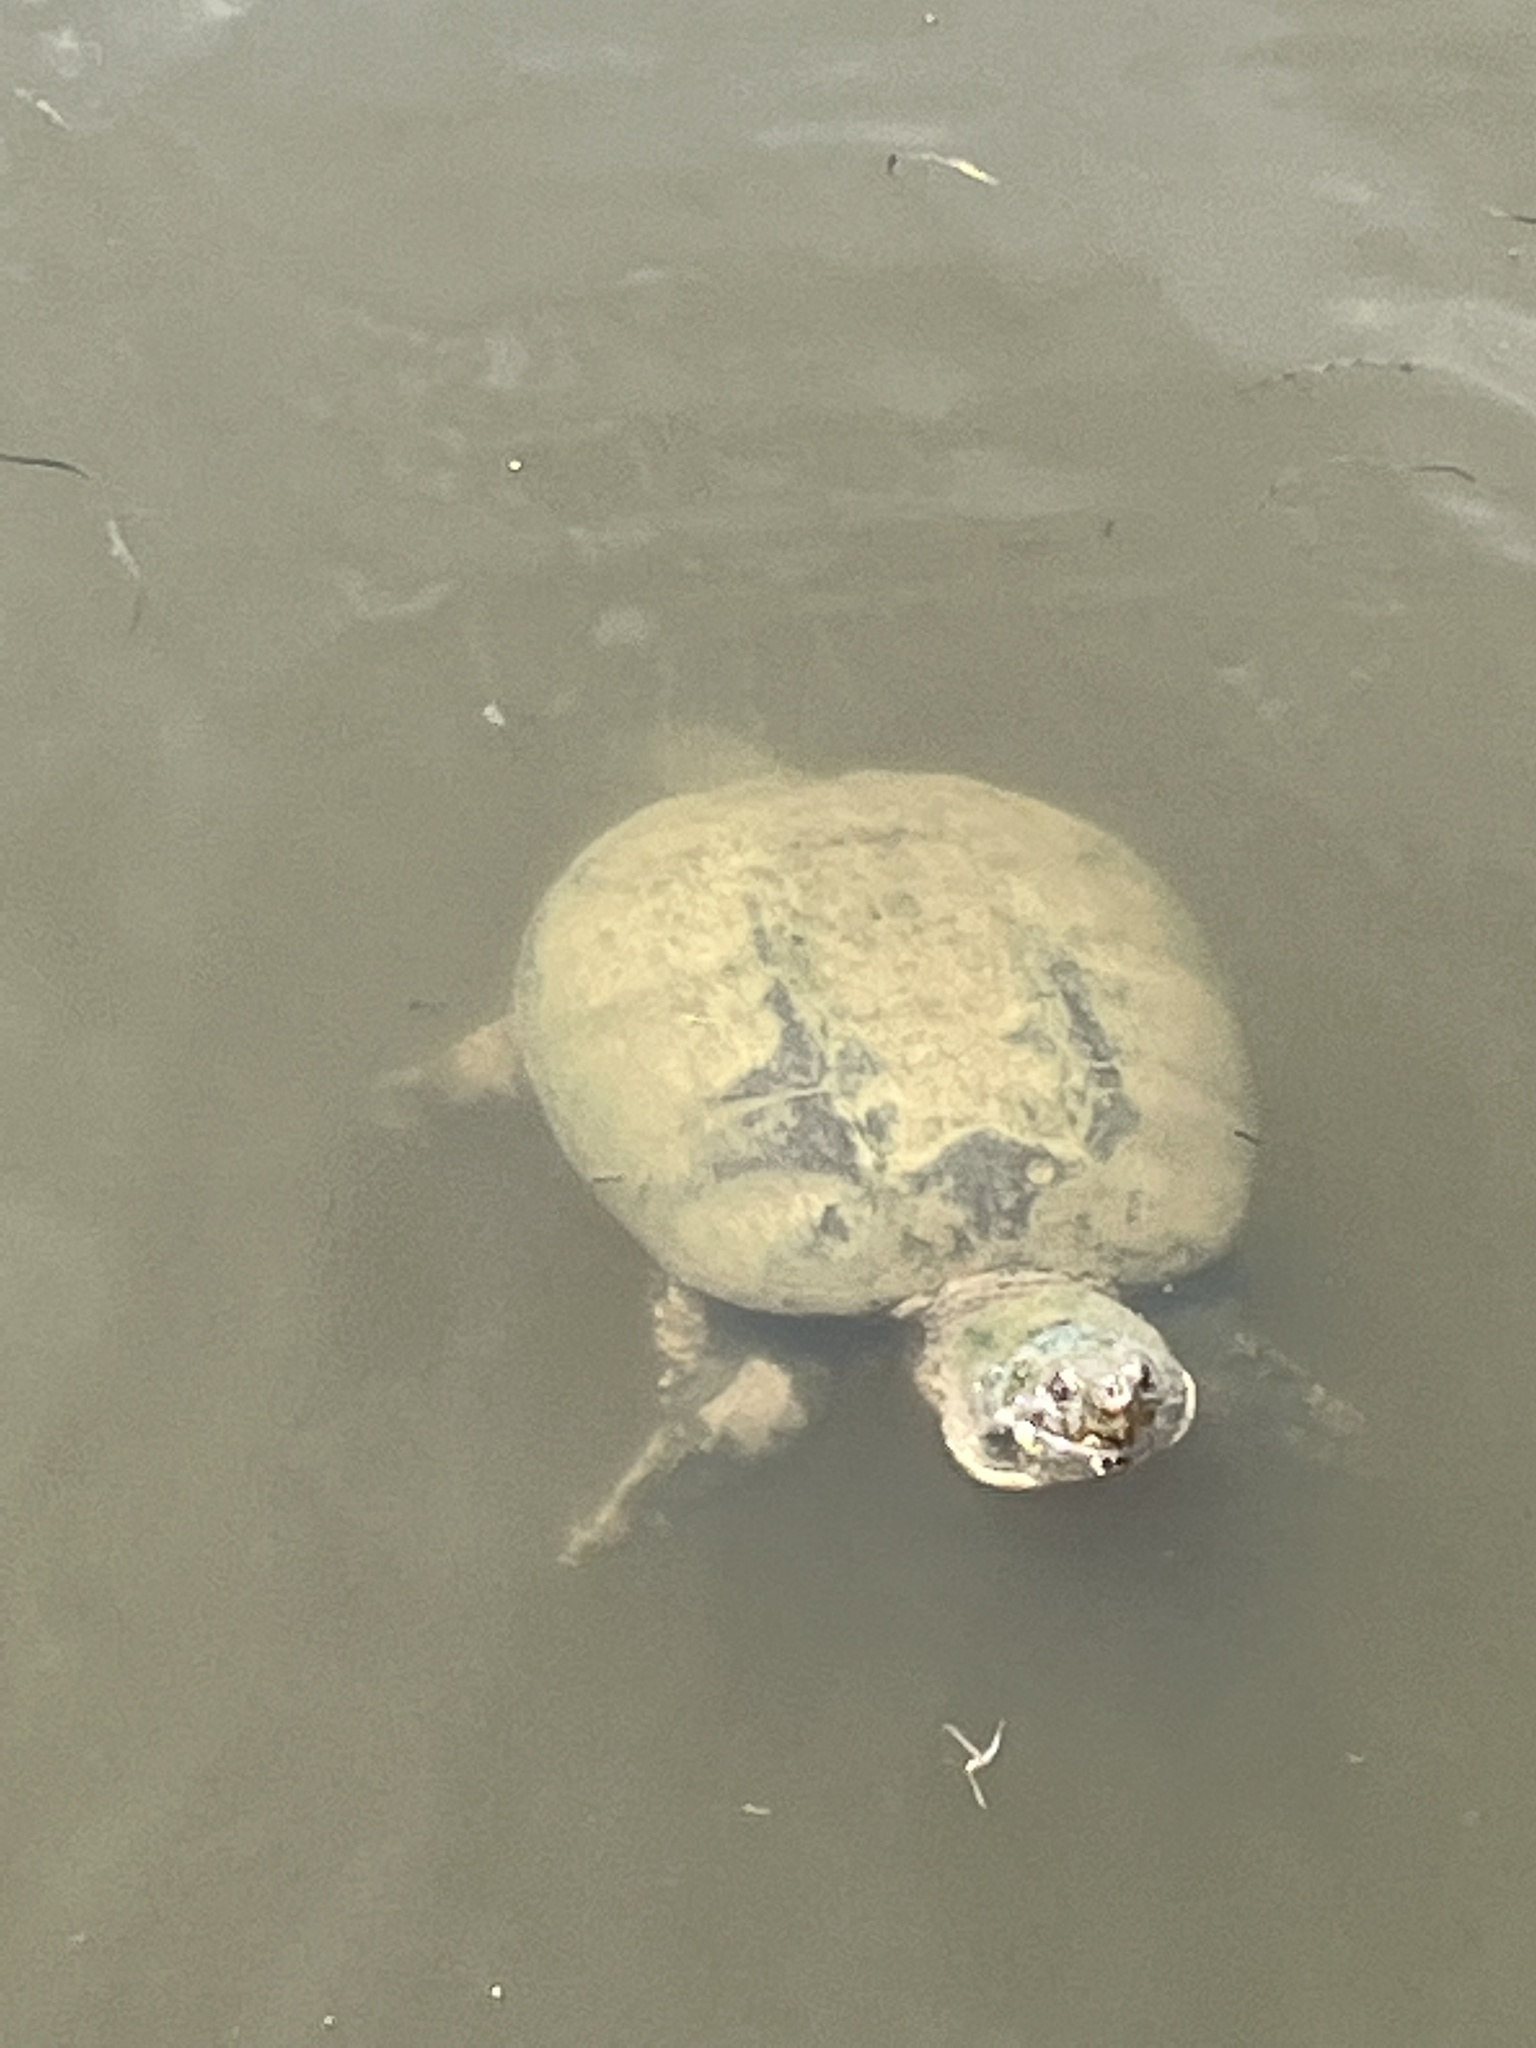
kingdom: Animalia
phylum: Chordata
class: Testudines
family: Chelydridae
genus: Chelydra
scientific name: Chelydra serpentina
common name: Common snapping turtle
